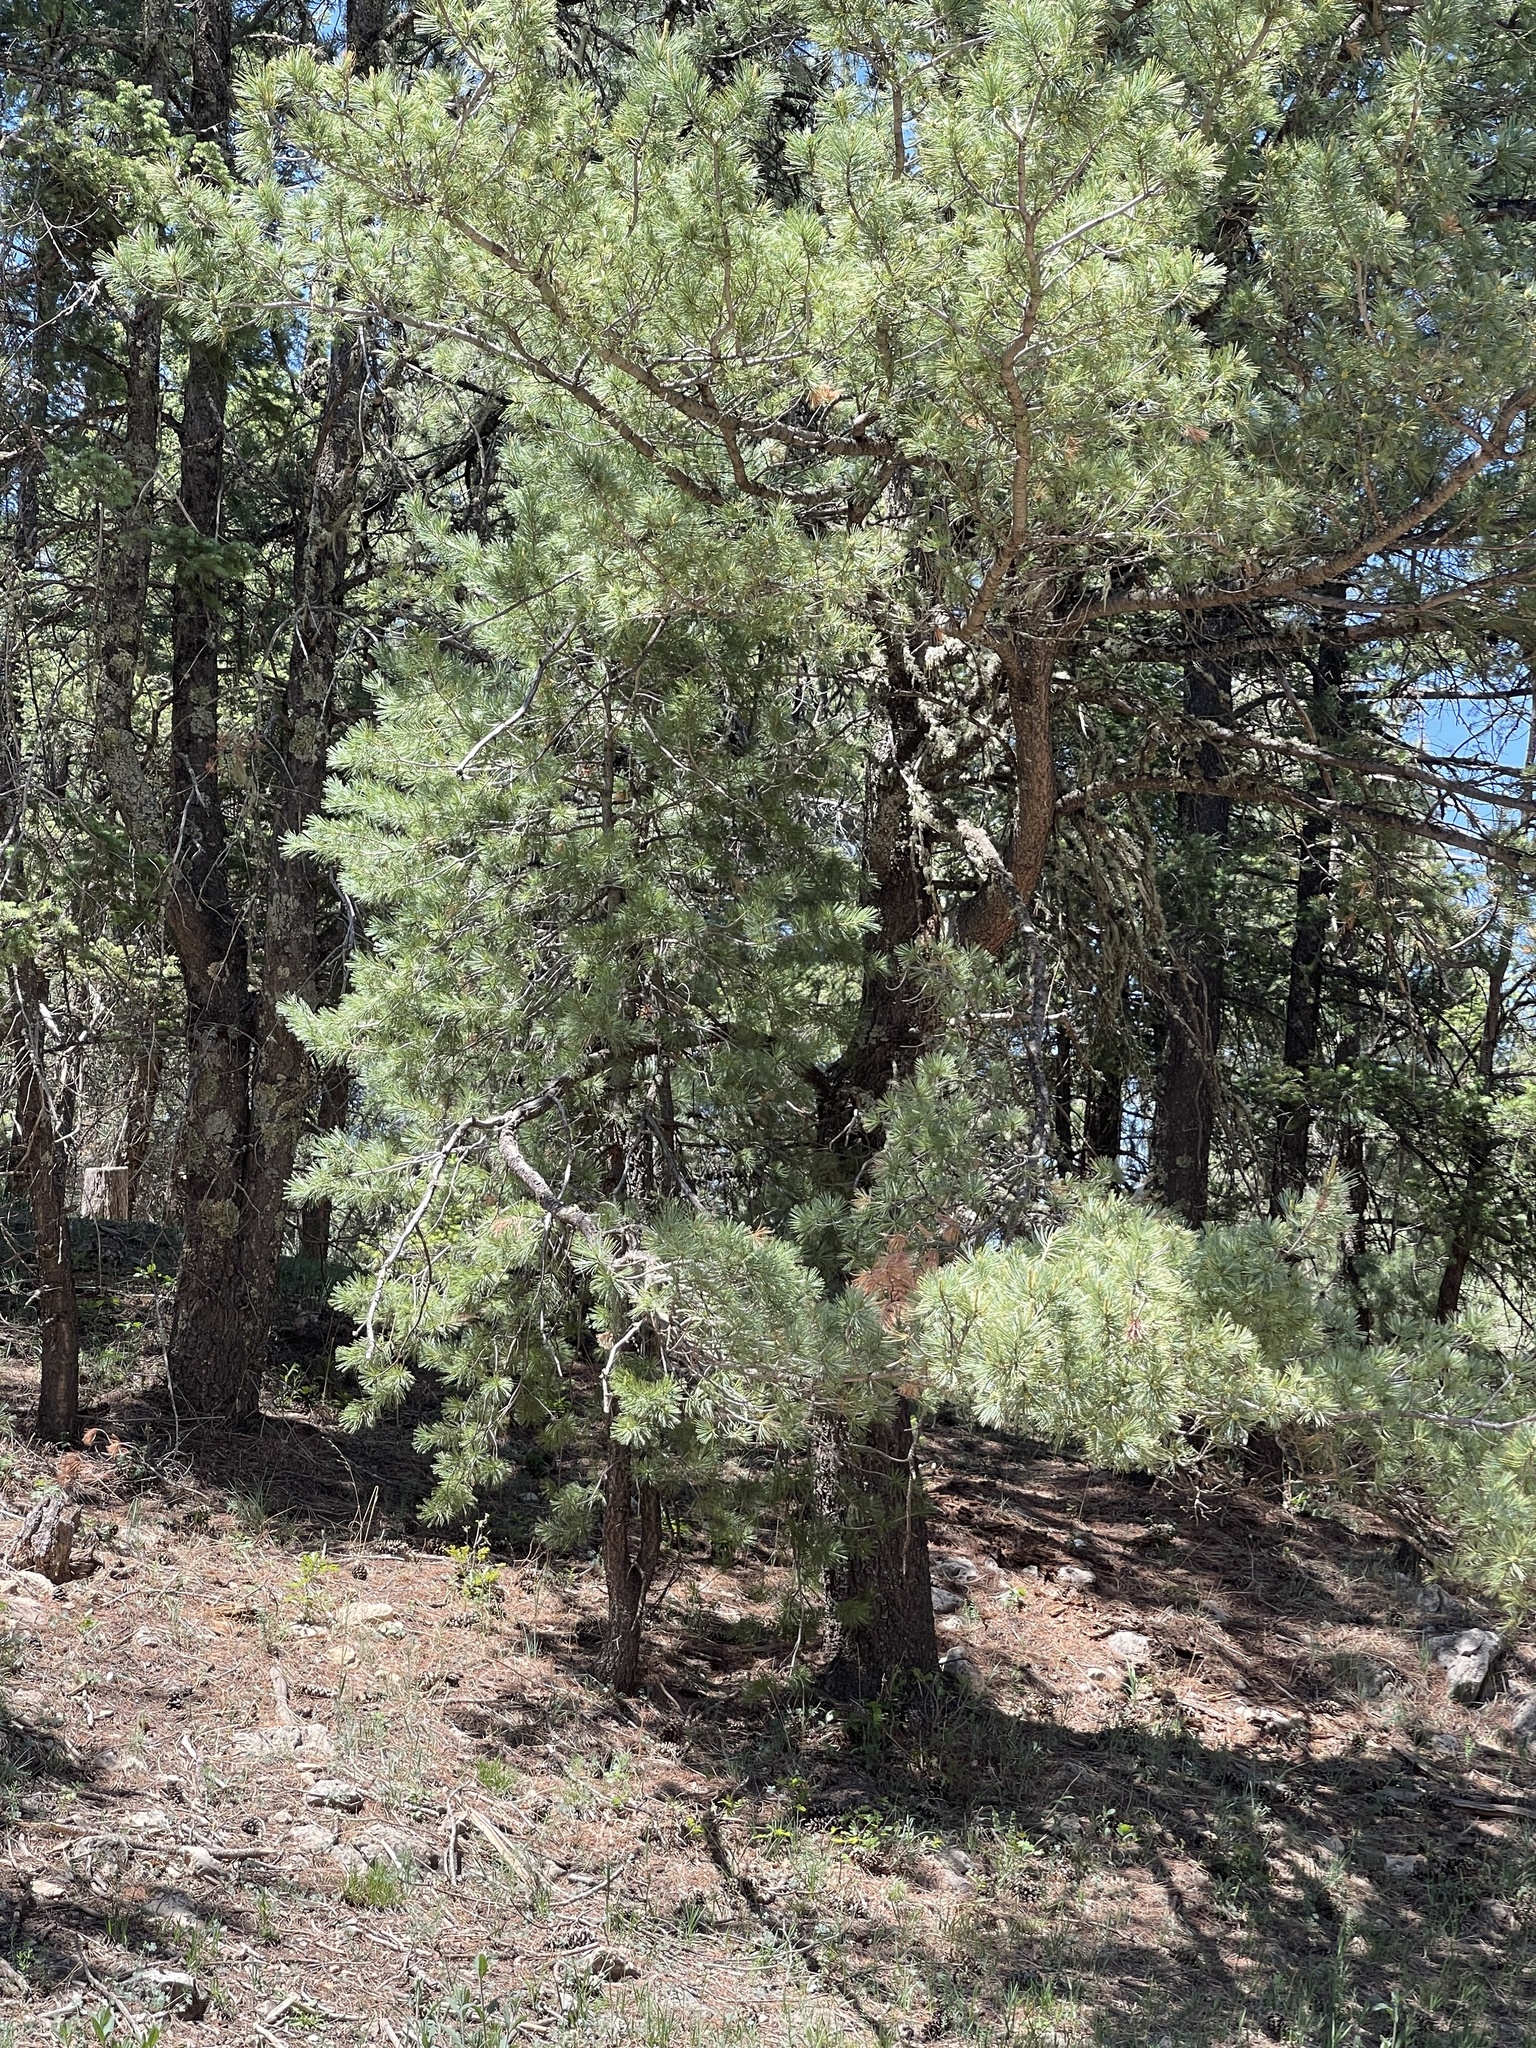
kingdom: Plantae
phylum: Tracheophyta
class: Pinopsida
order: Pinales
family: Pinaceae
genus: Pinus
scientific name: Pinus strobiformis
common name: Southwestern white pine
